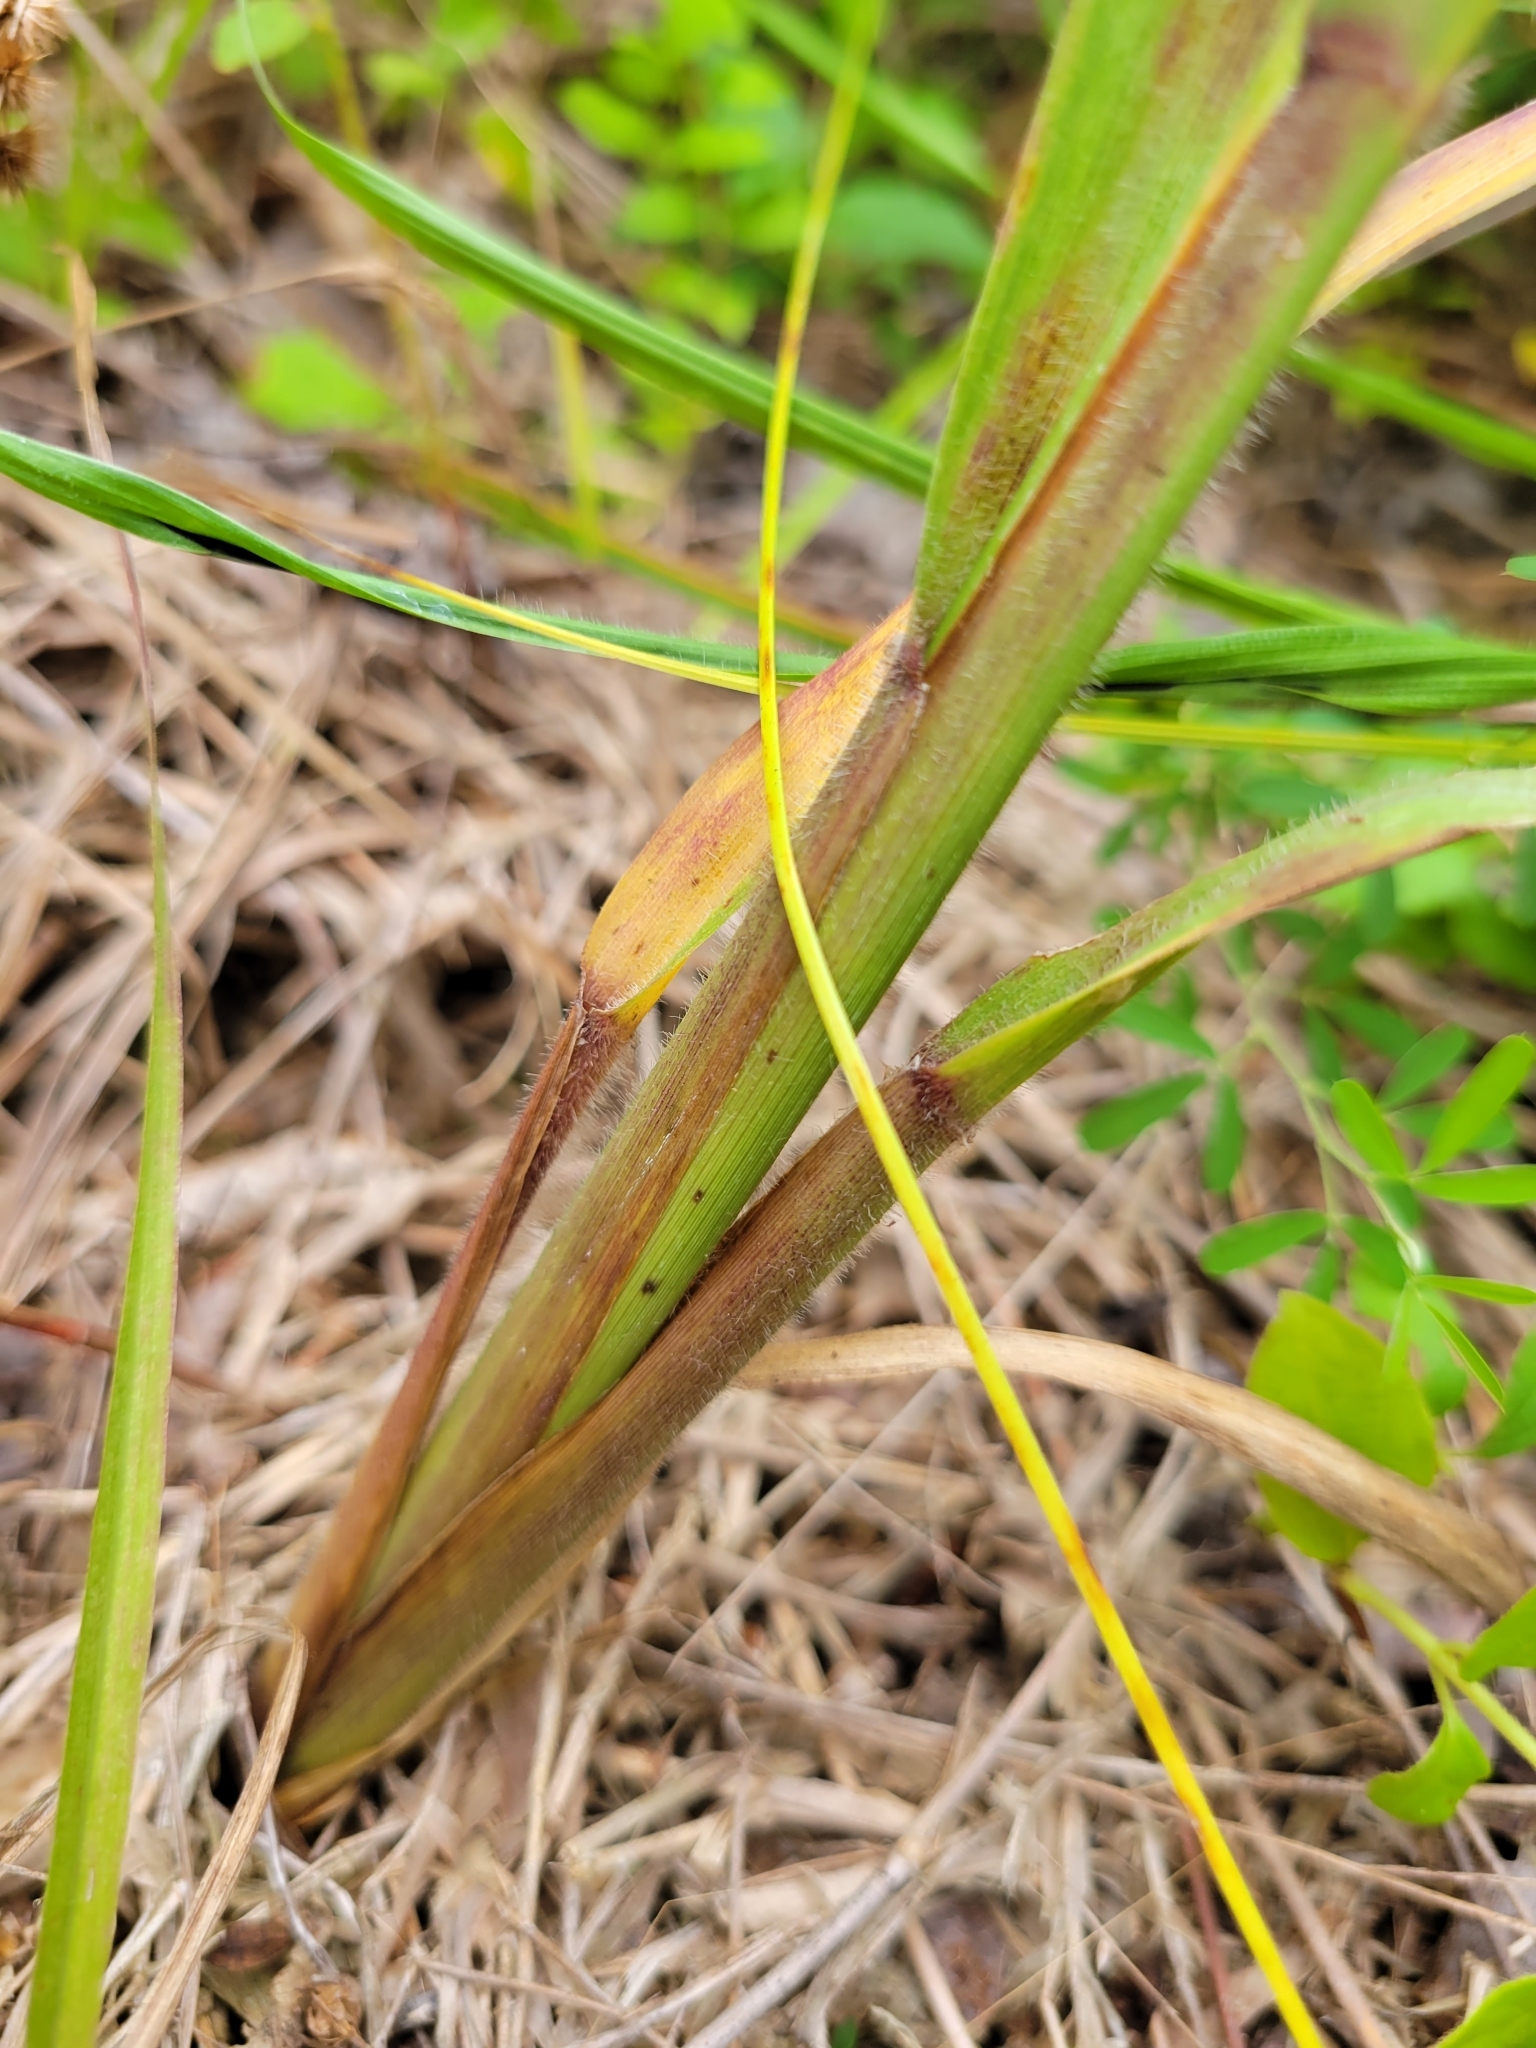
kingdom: Plantae
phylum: Tracheophyta
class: Liliopsida
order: Poales
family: Poaceae
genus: Coleataenia
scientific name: Coleataenia anceps
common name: Beaked panic grass
